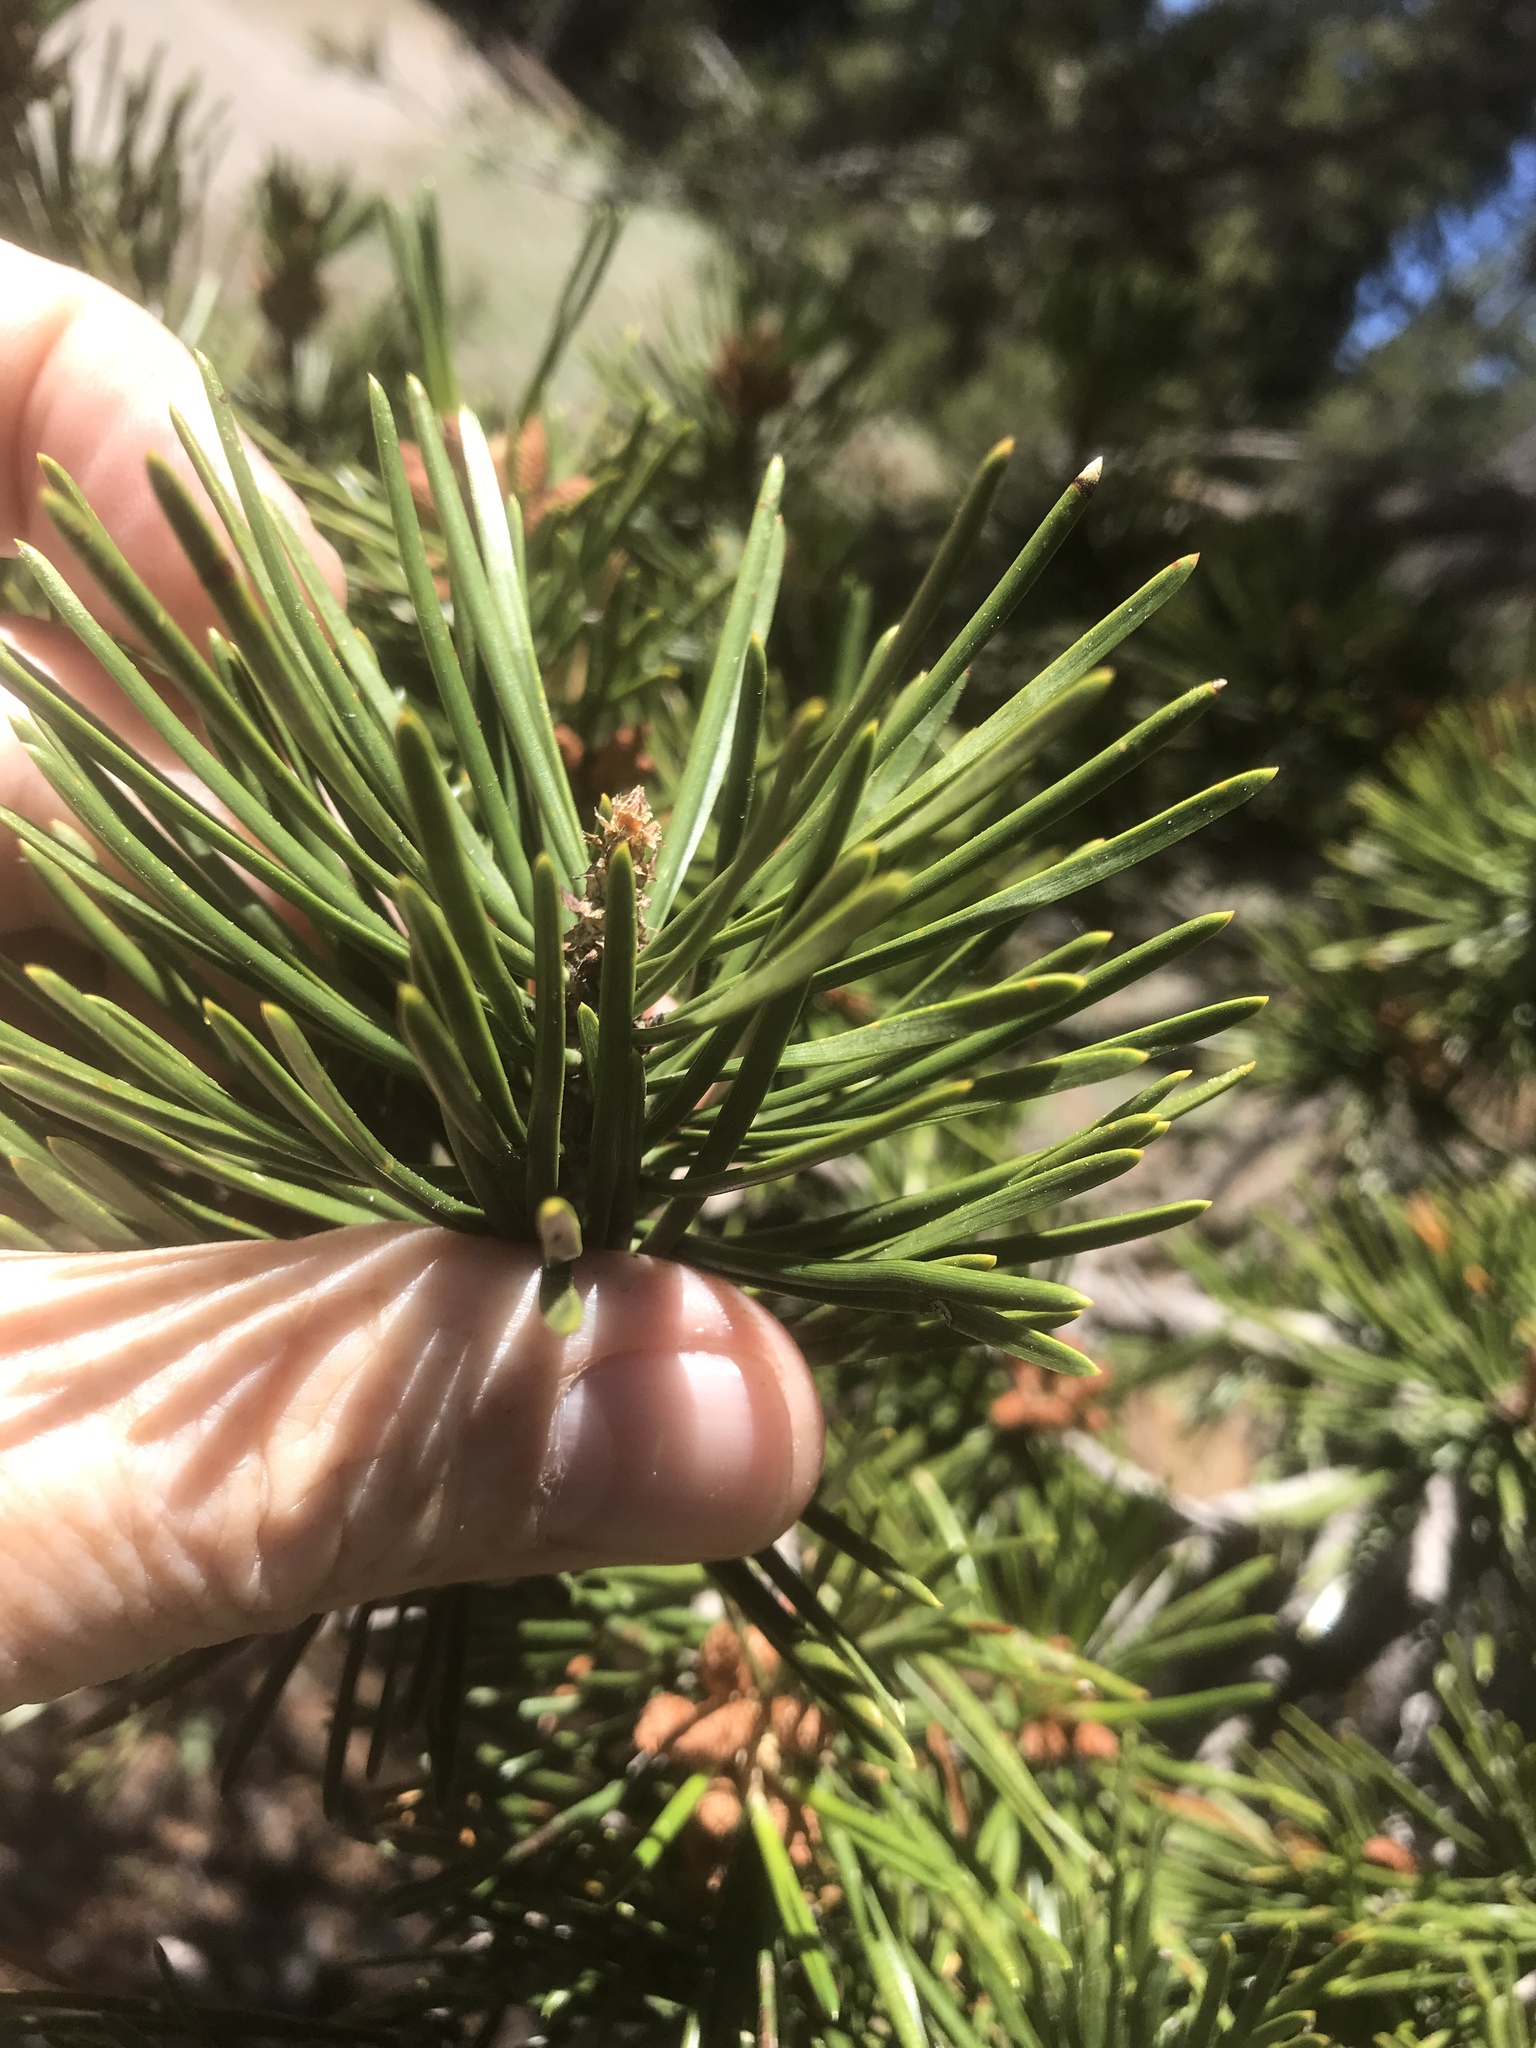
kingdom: Plantae
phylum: Tracheophyta
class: Pinopsida
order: Pinales
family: Pinaceae
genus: Pinus
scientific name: Pinus contorta
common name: Lodgepole pine
